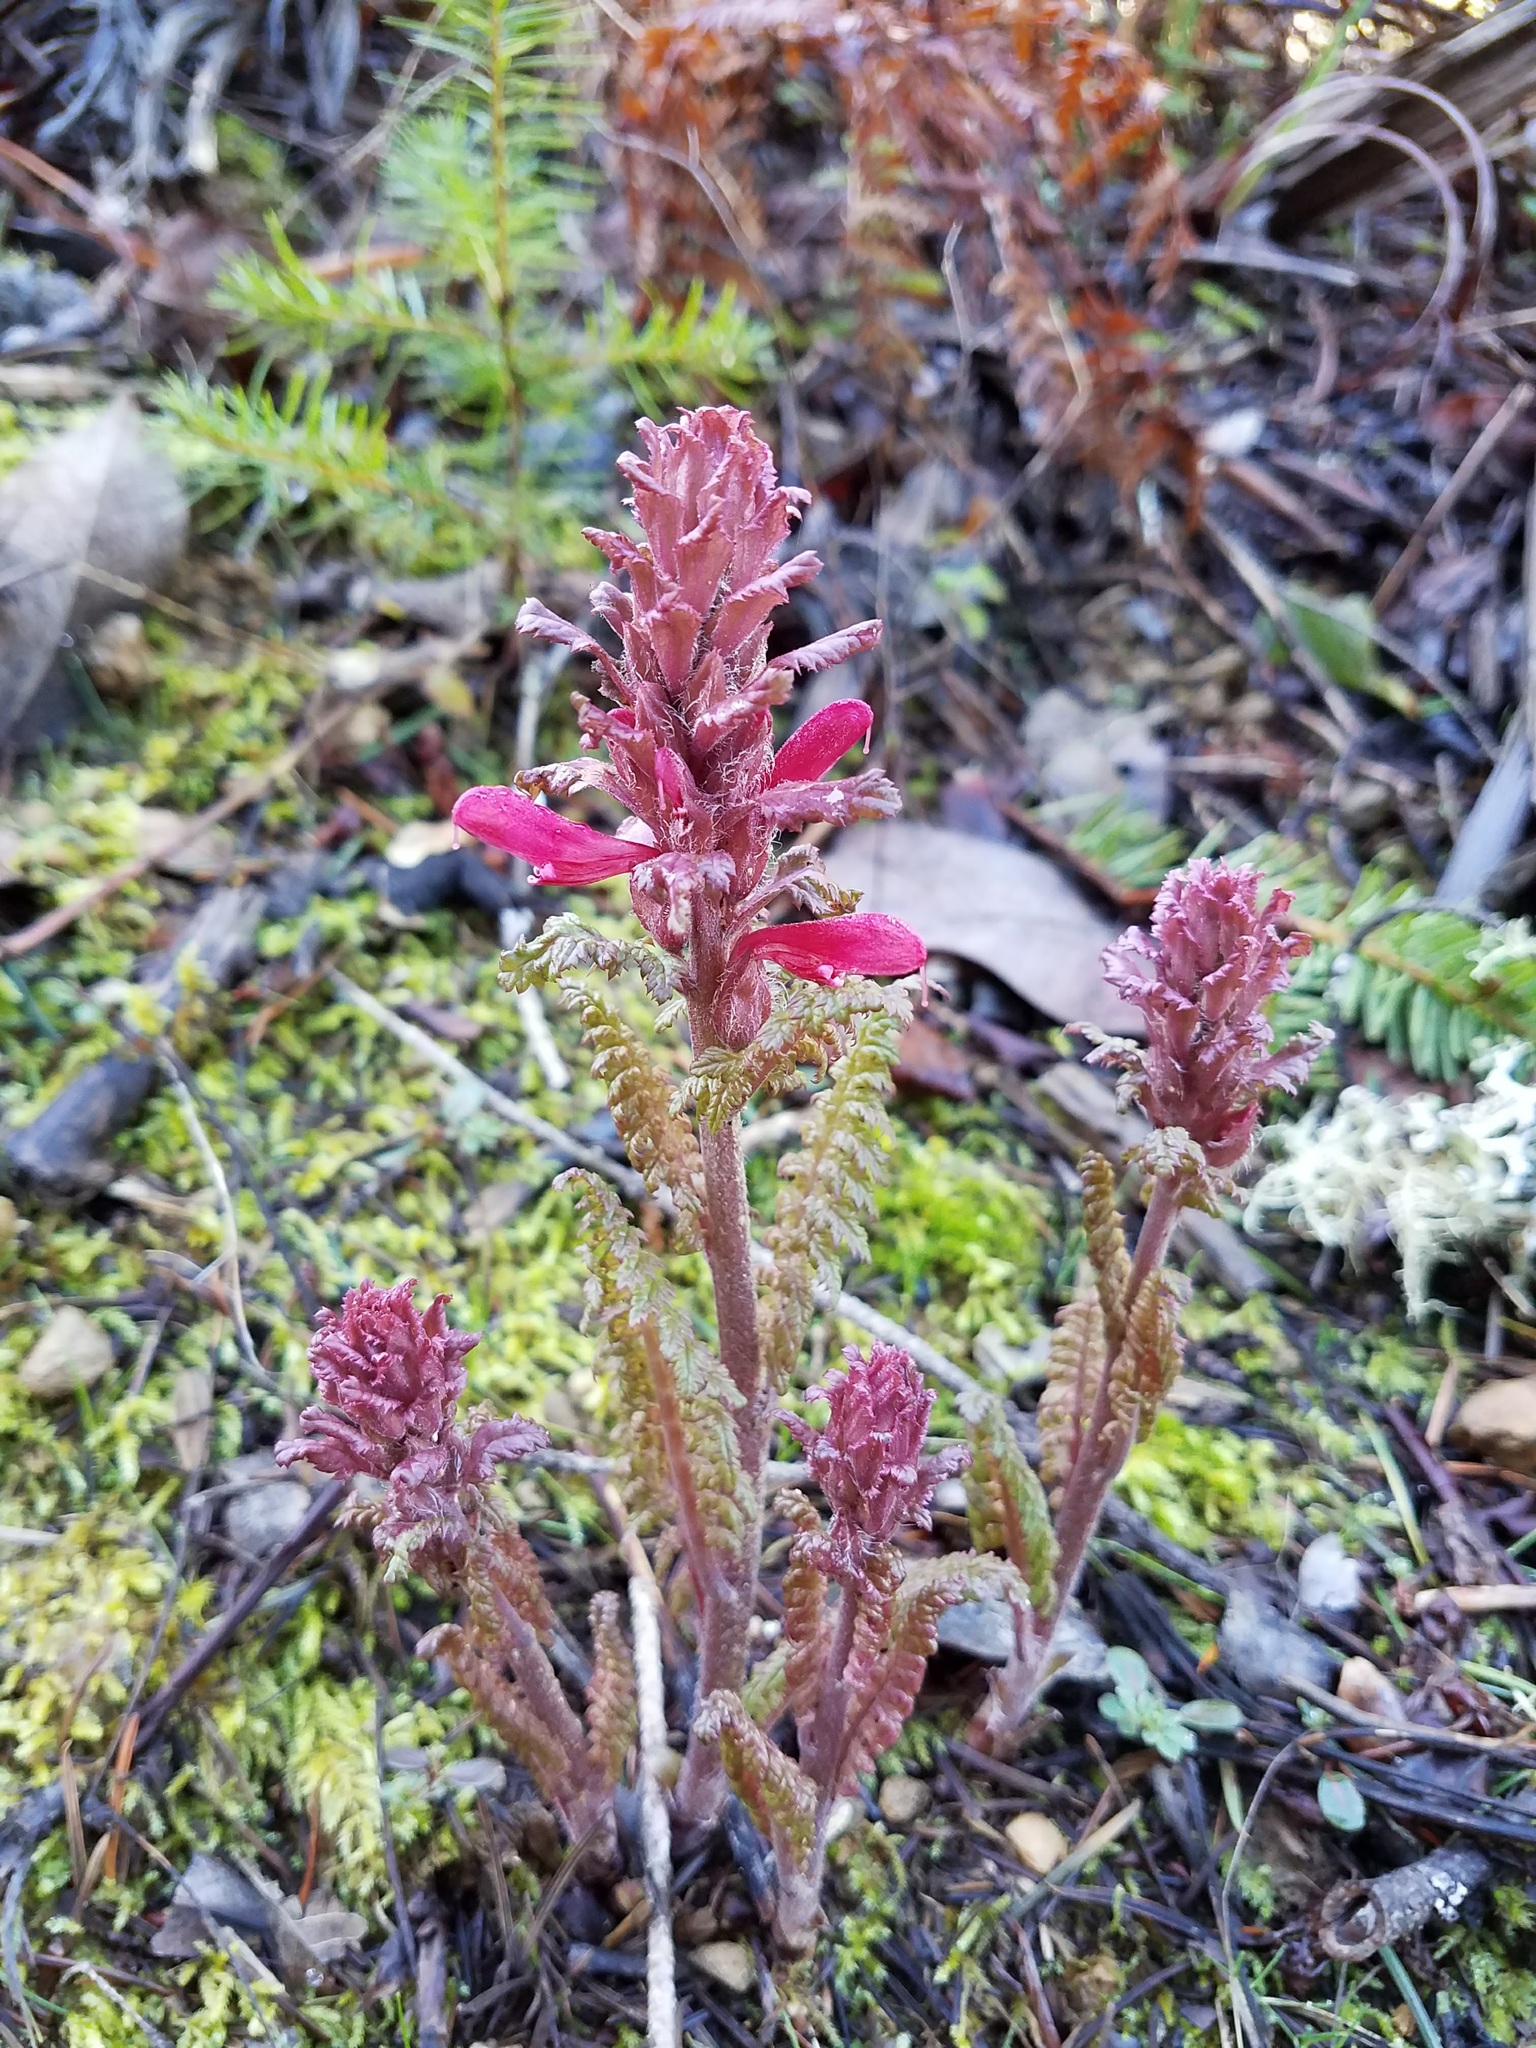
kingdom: Plantae
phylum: Tracheophyta
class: Magnoliopsida
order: Lamiales
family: Orobanchaceae
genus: Pedicularis
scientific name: Pedicularis densiflora
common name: Indian warrior
